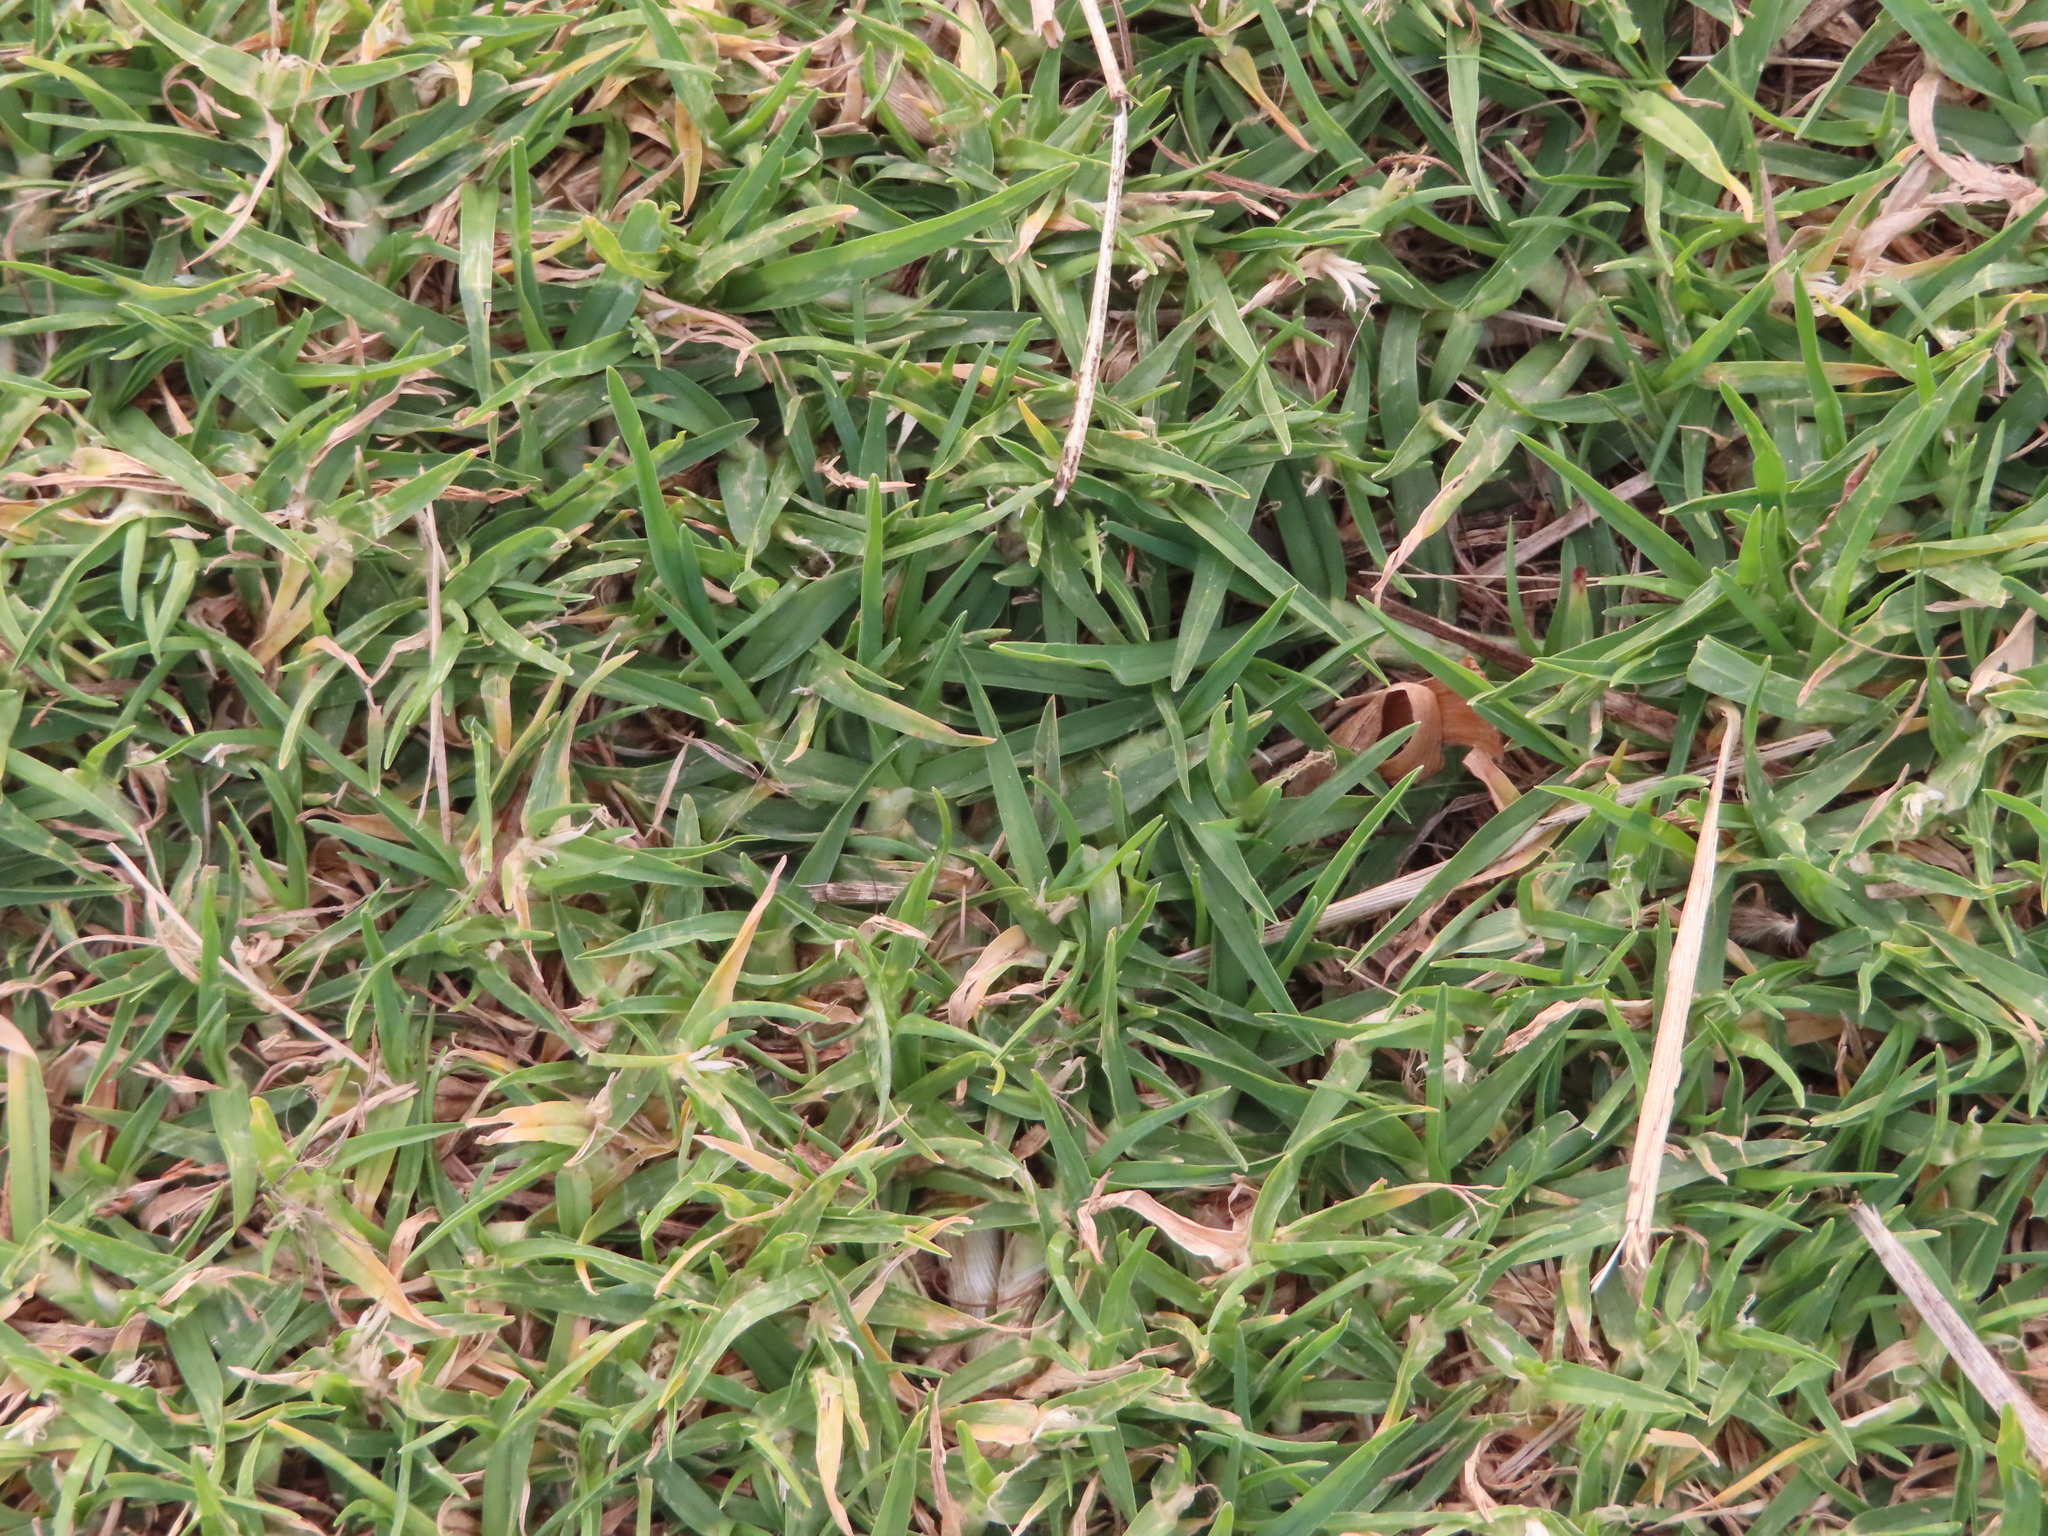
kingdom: Plantae
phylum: Tracheophyta
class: Liliopsida
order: Poales
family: Poaceae
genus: Cenchrus
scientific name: Cenchrus clandestinus
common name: Kikuyugrass
